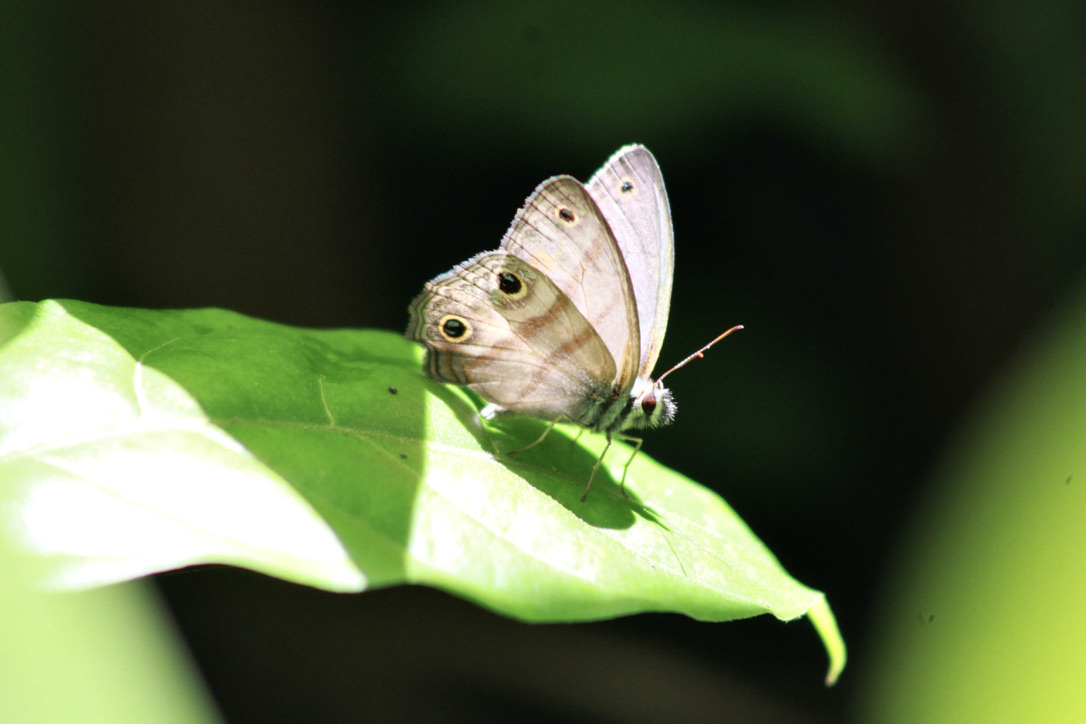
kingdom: Animalia
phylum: Arthropoda
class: Insecta
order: Lepidoptera
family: Nymphalidae
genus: Argyreuptychia
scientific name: Argyreuptychia penelope
